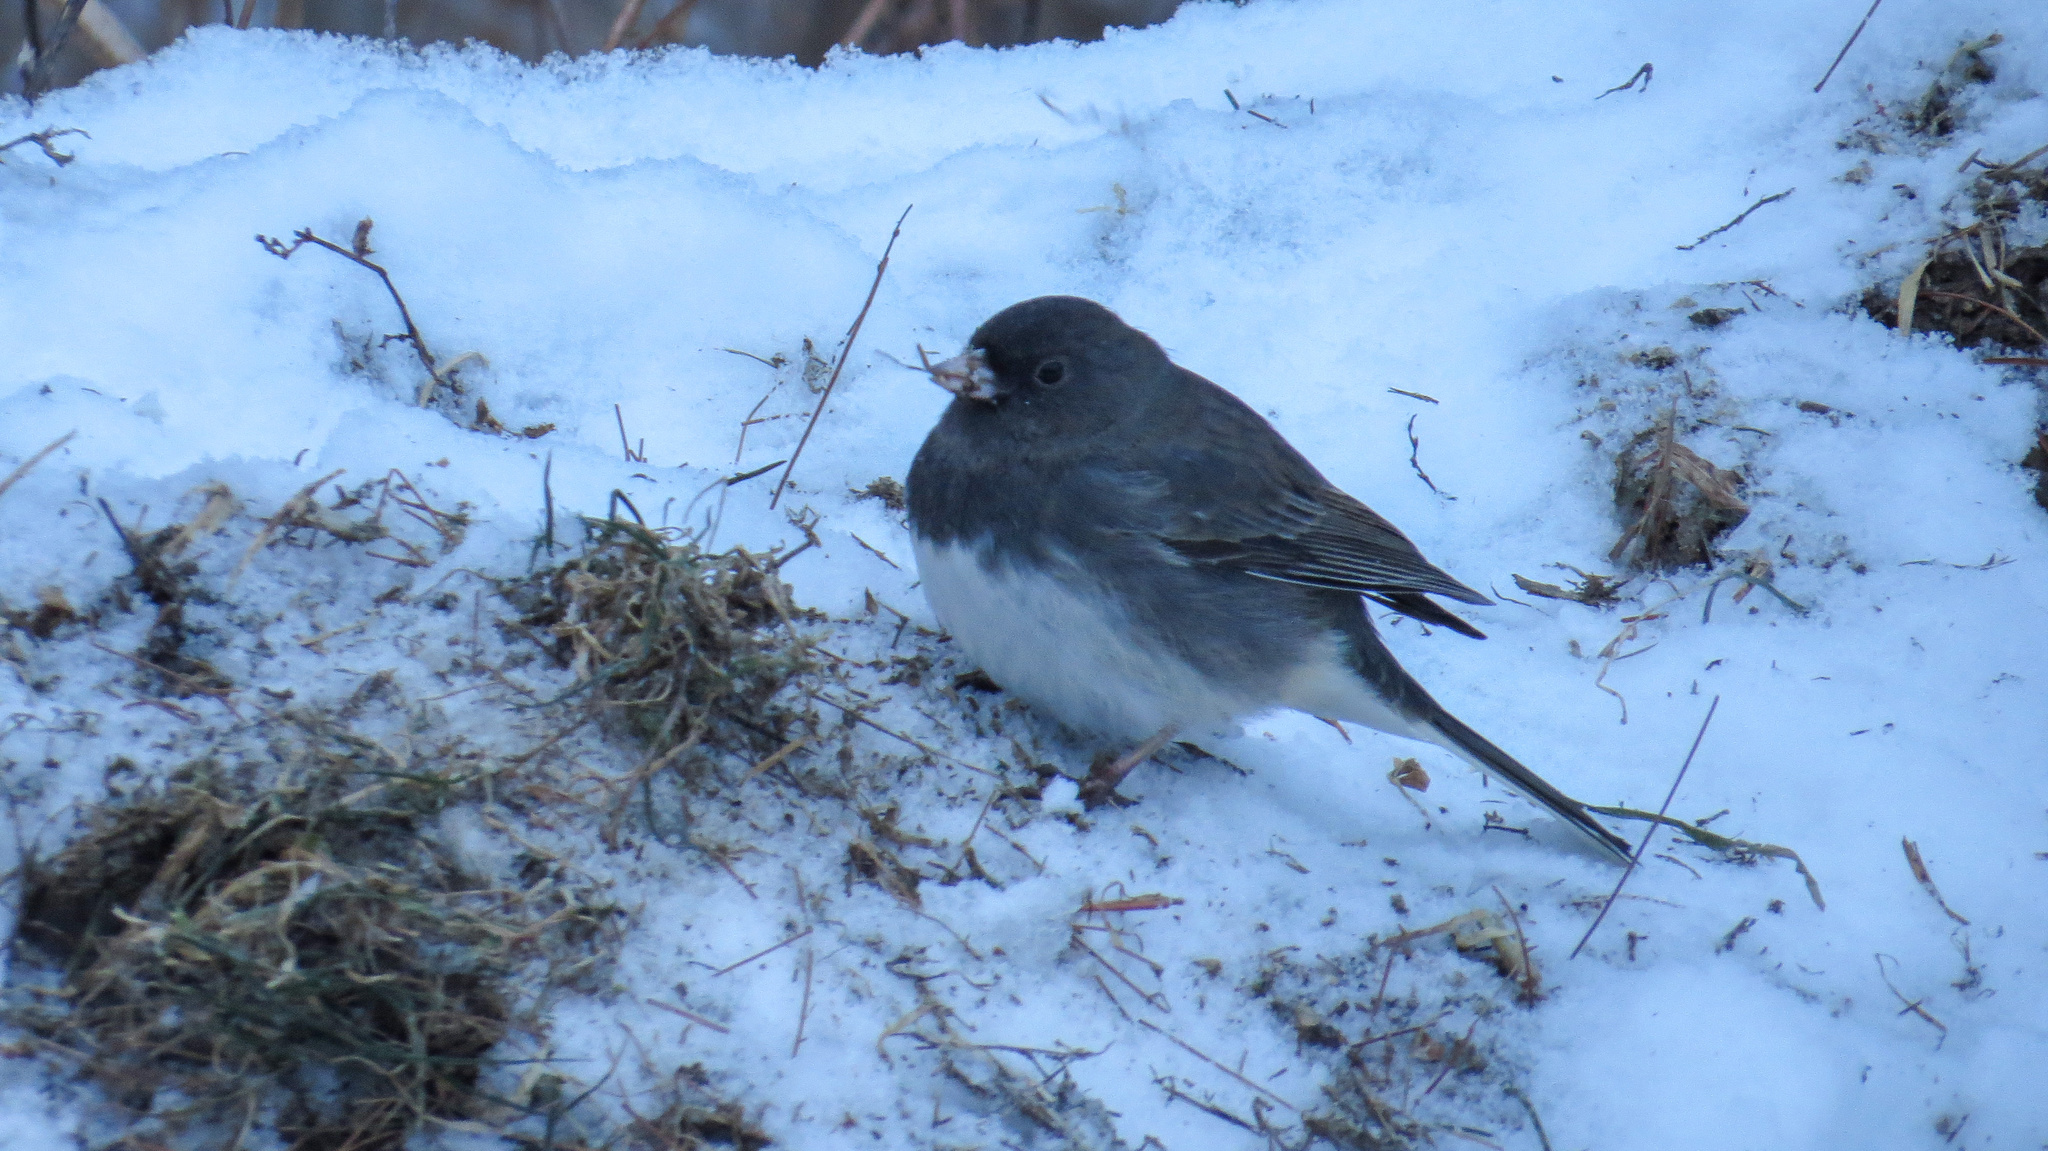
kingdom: Animalia
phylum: Chordata
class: Aves
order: Passeriformes
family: Passerellidae
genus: Junco
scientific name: Junco hyemalis
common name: Dark-eyed junco
